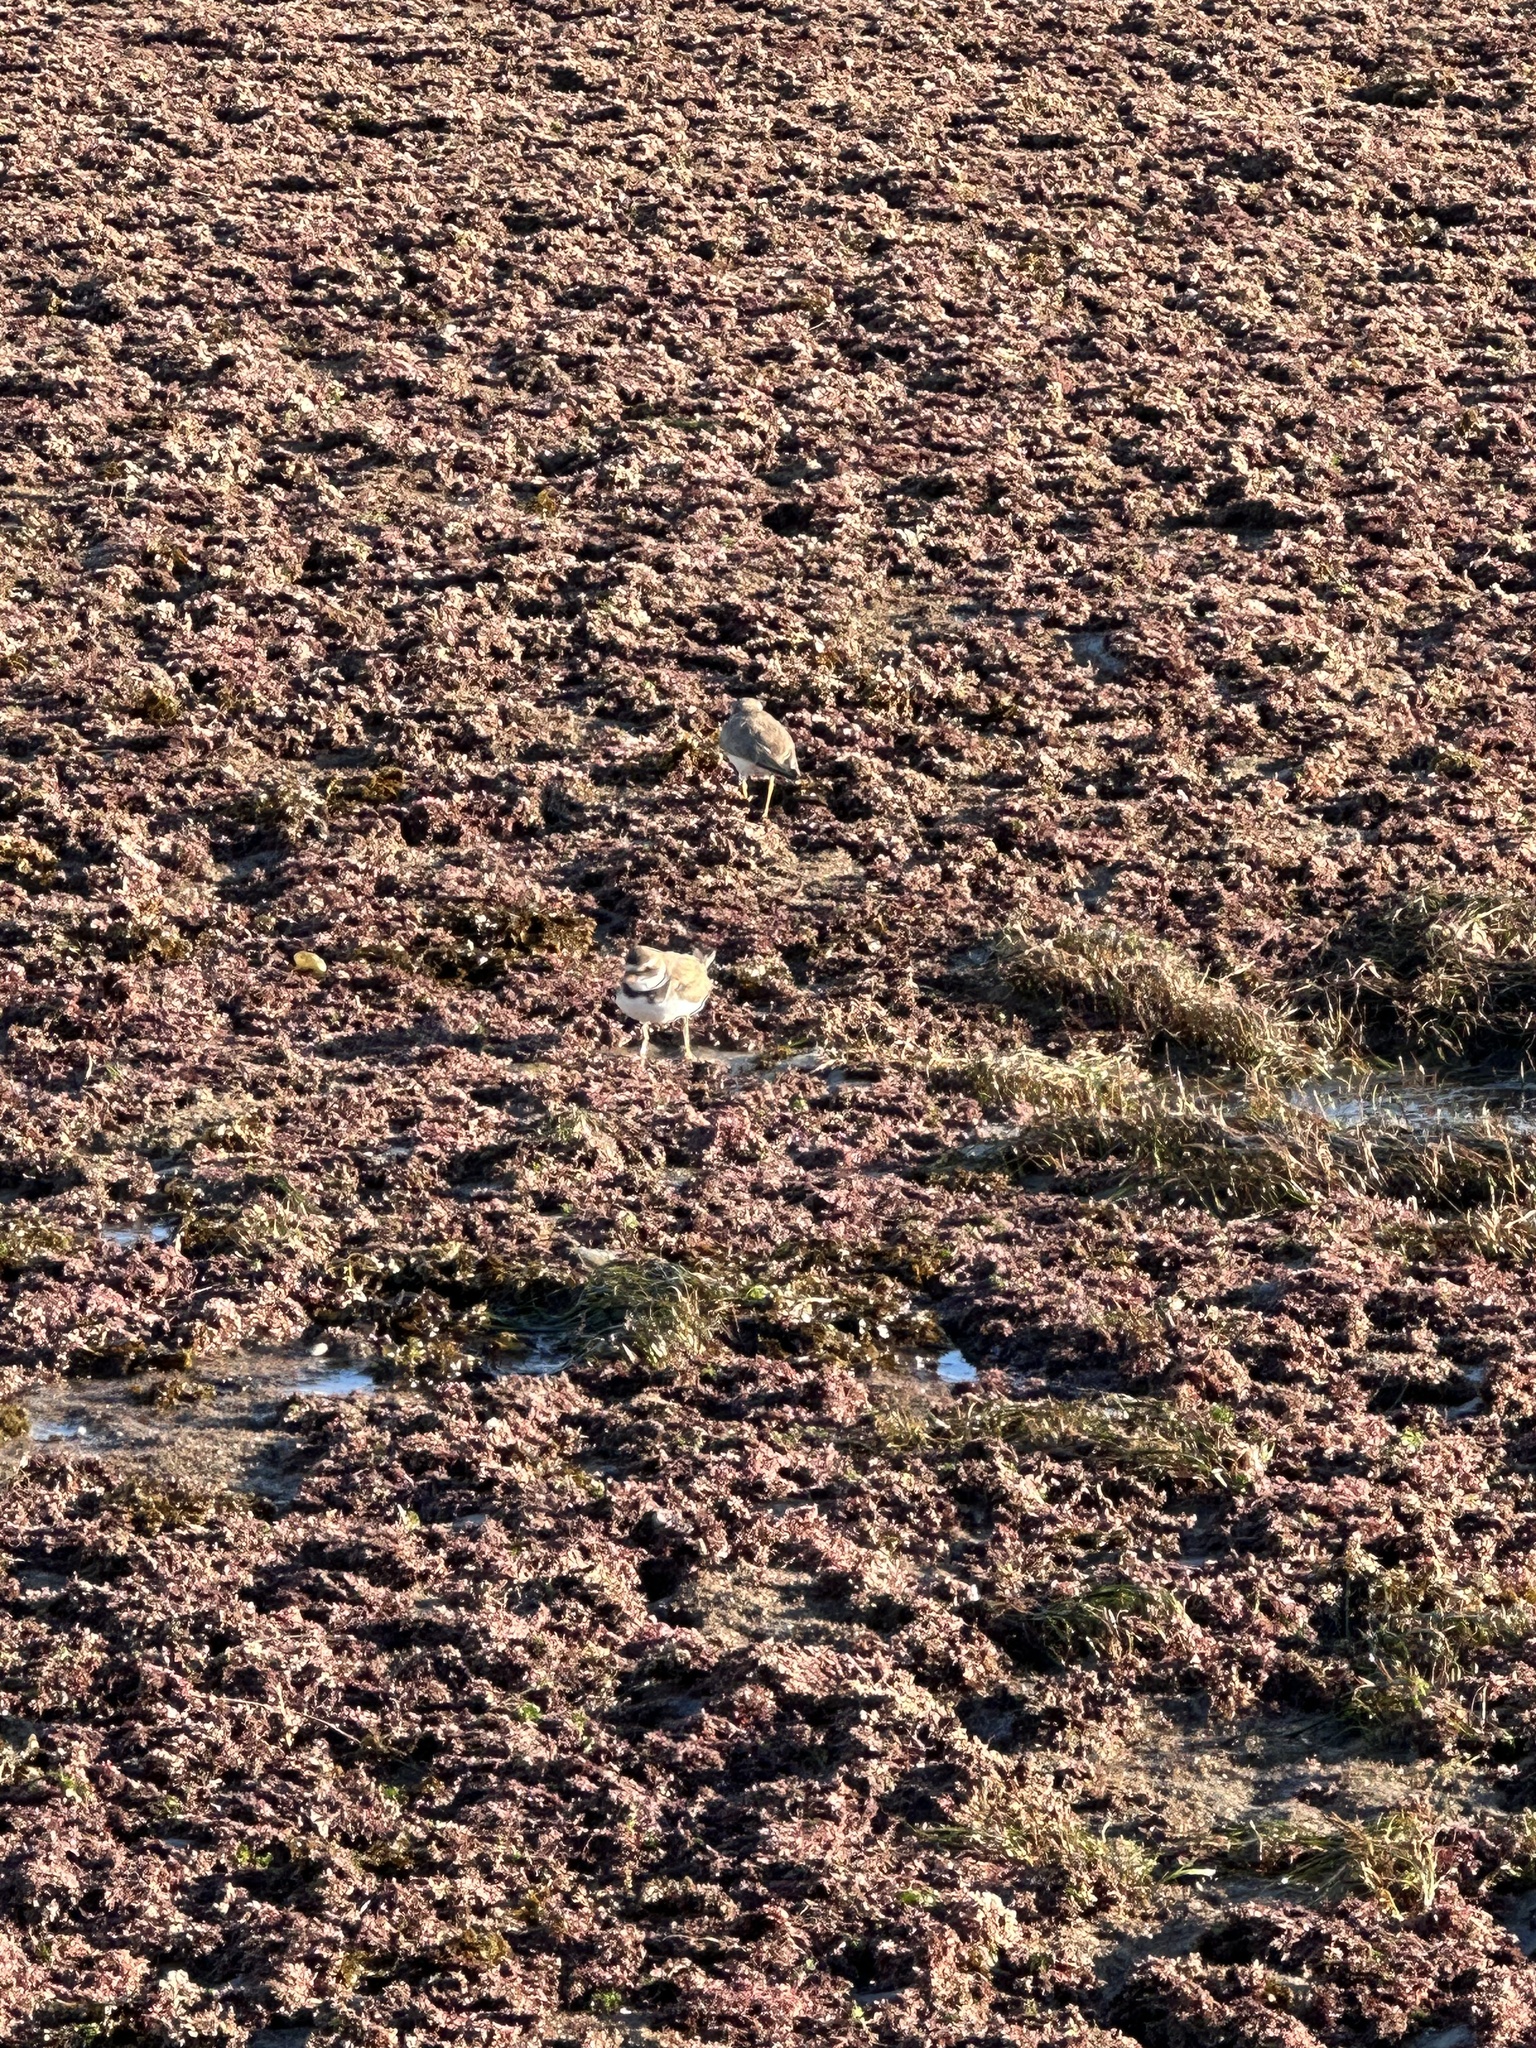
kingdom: Animalia
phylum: Chordata
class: Aves
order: Charadriiformes
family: Charadriidae
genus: Charadrius
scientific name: Charadrius vociferus
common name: Killdeer
